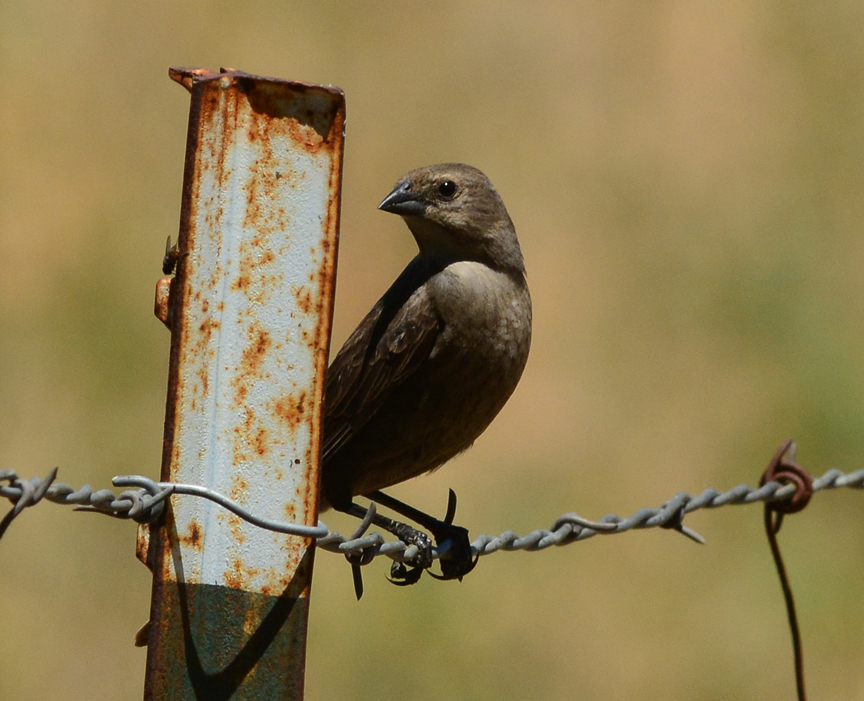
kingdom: Animalia
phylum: Chordata
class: Aves
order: Passeriformes
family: Icteridae
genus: Molothrus
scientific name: Molothrus ater
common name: Brown-headed cowbird
